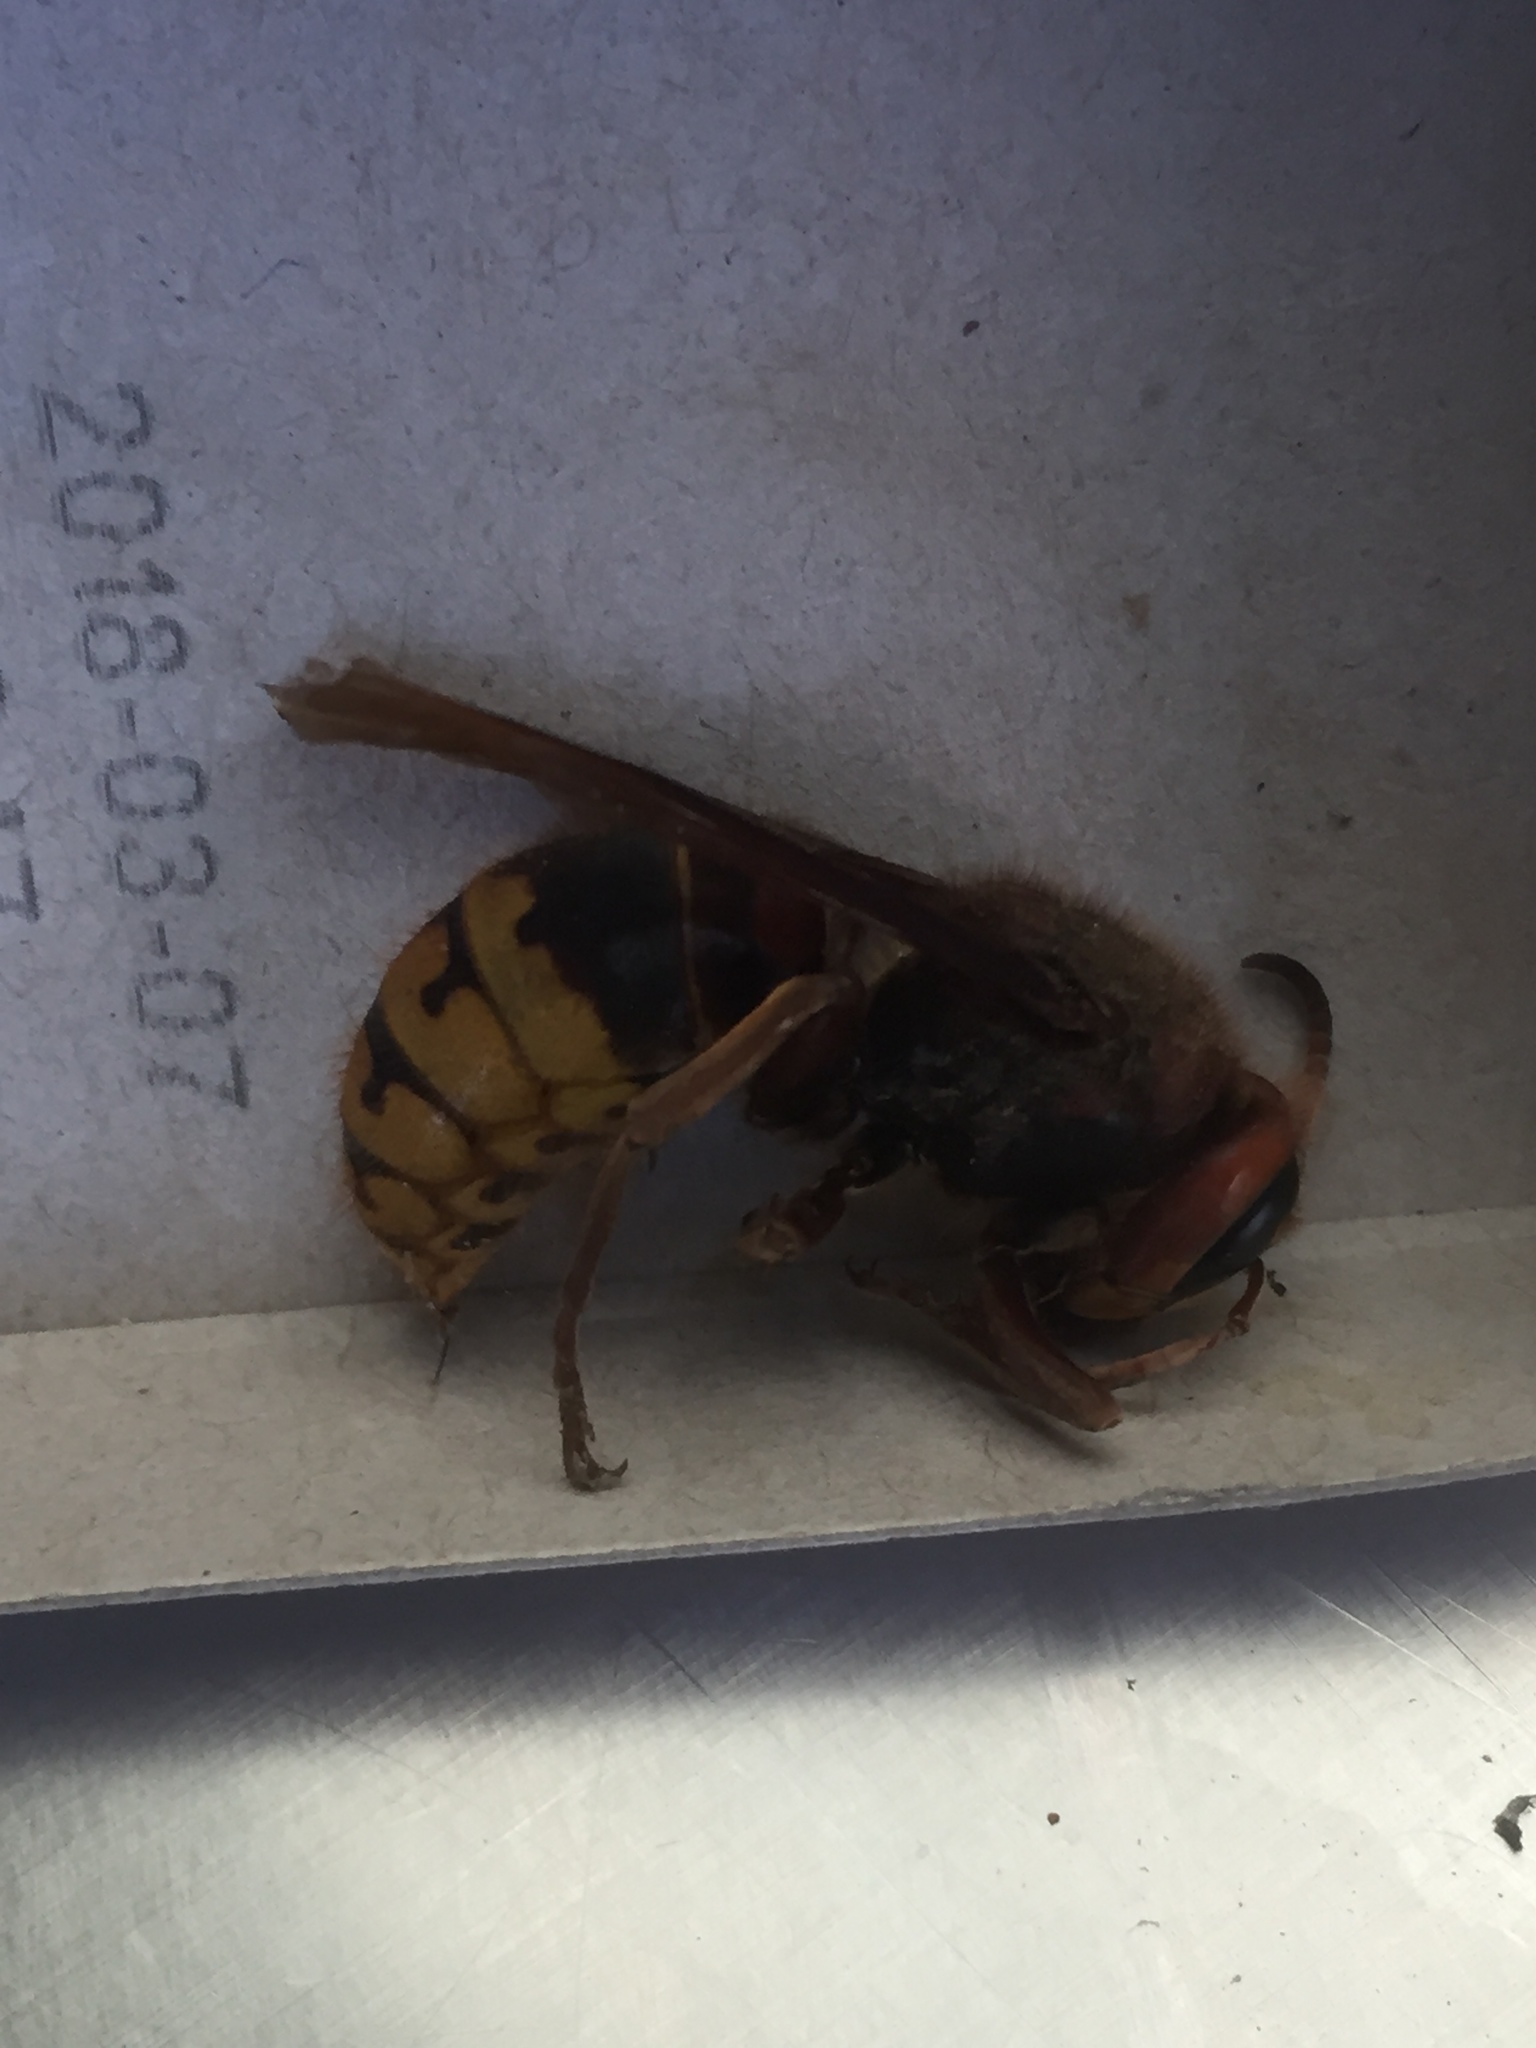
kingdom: Animalia
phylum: Arthropoda
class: Insecta
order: Hymenoptera
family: Vespidae
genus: Vespa
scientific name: Vespa crabro
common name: Hornet
